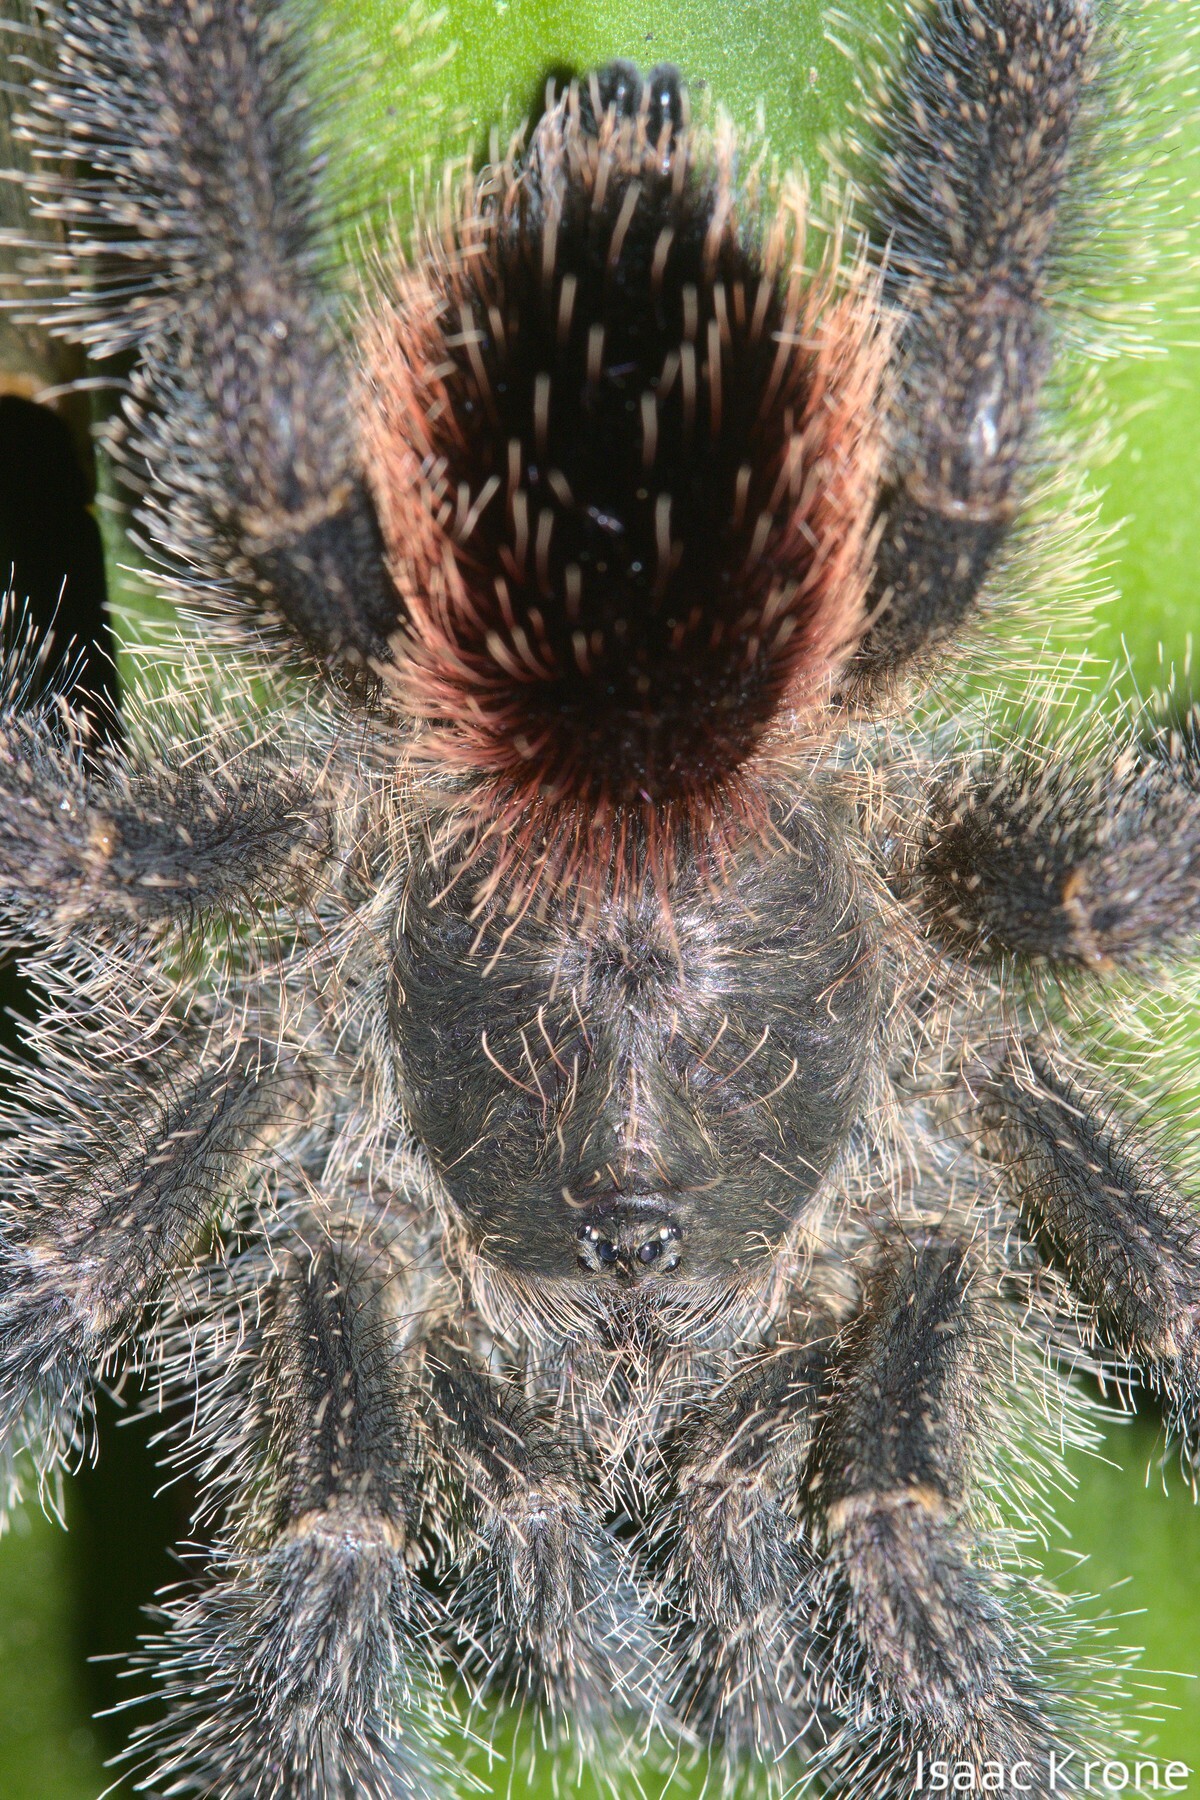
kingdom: Animalia
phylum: Arthropoda
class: Arachnida
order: Araneae
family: Theraphosidae
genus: Avicularia
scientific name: Avicularia juruensis
